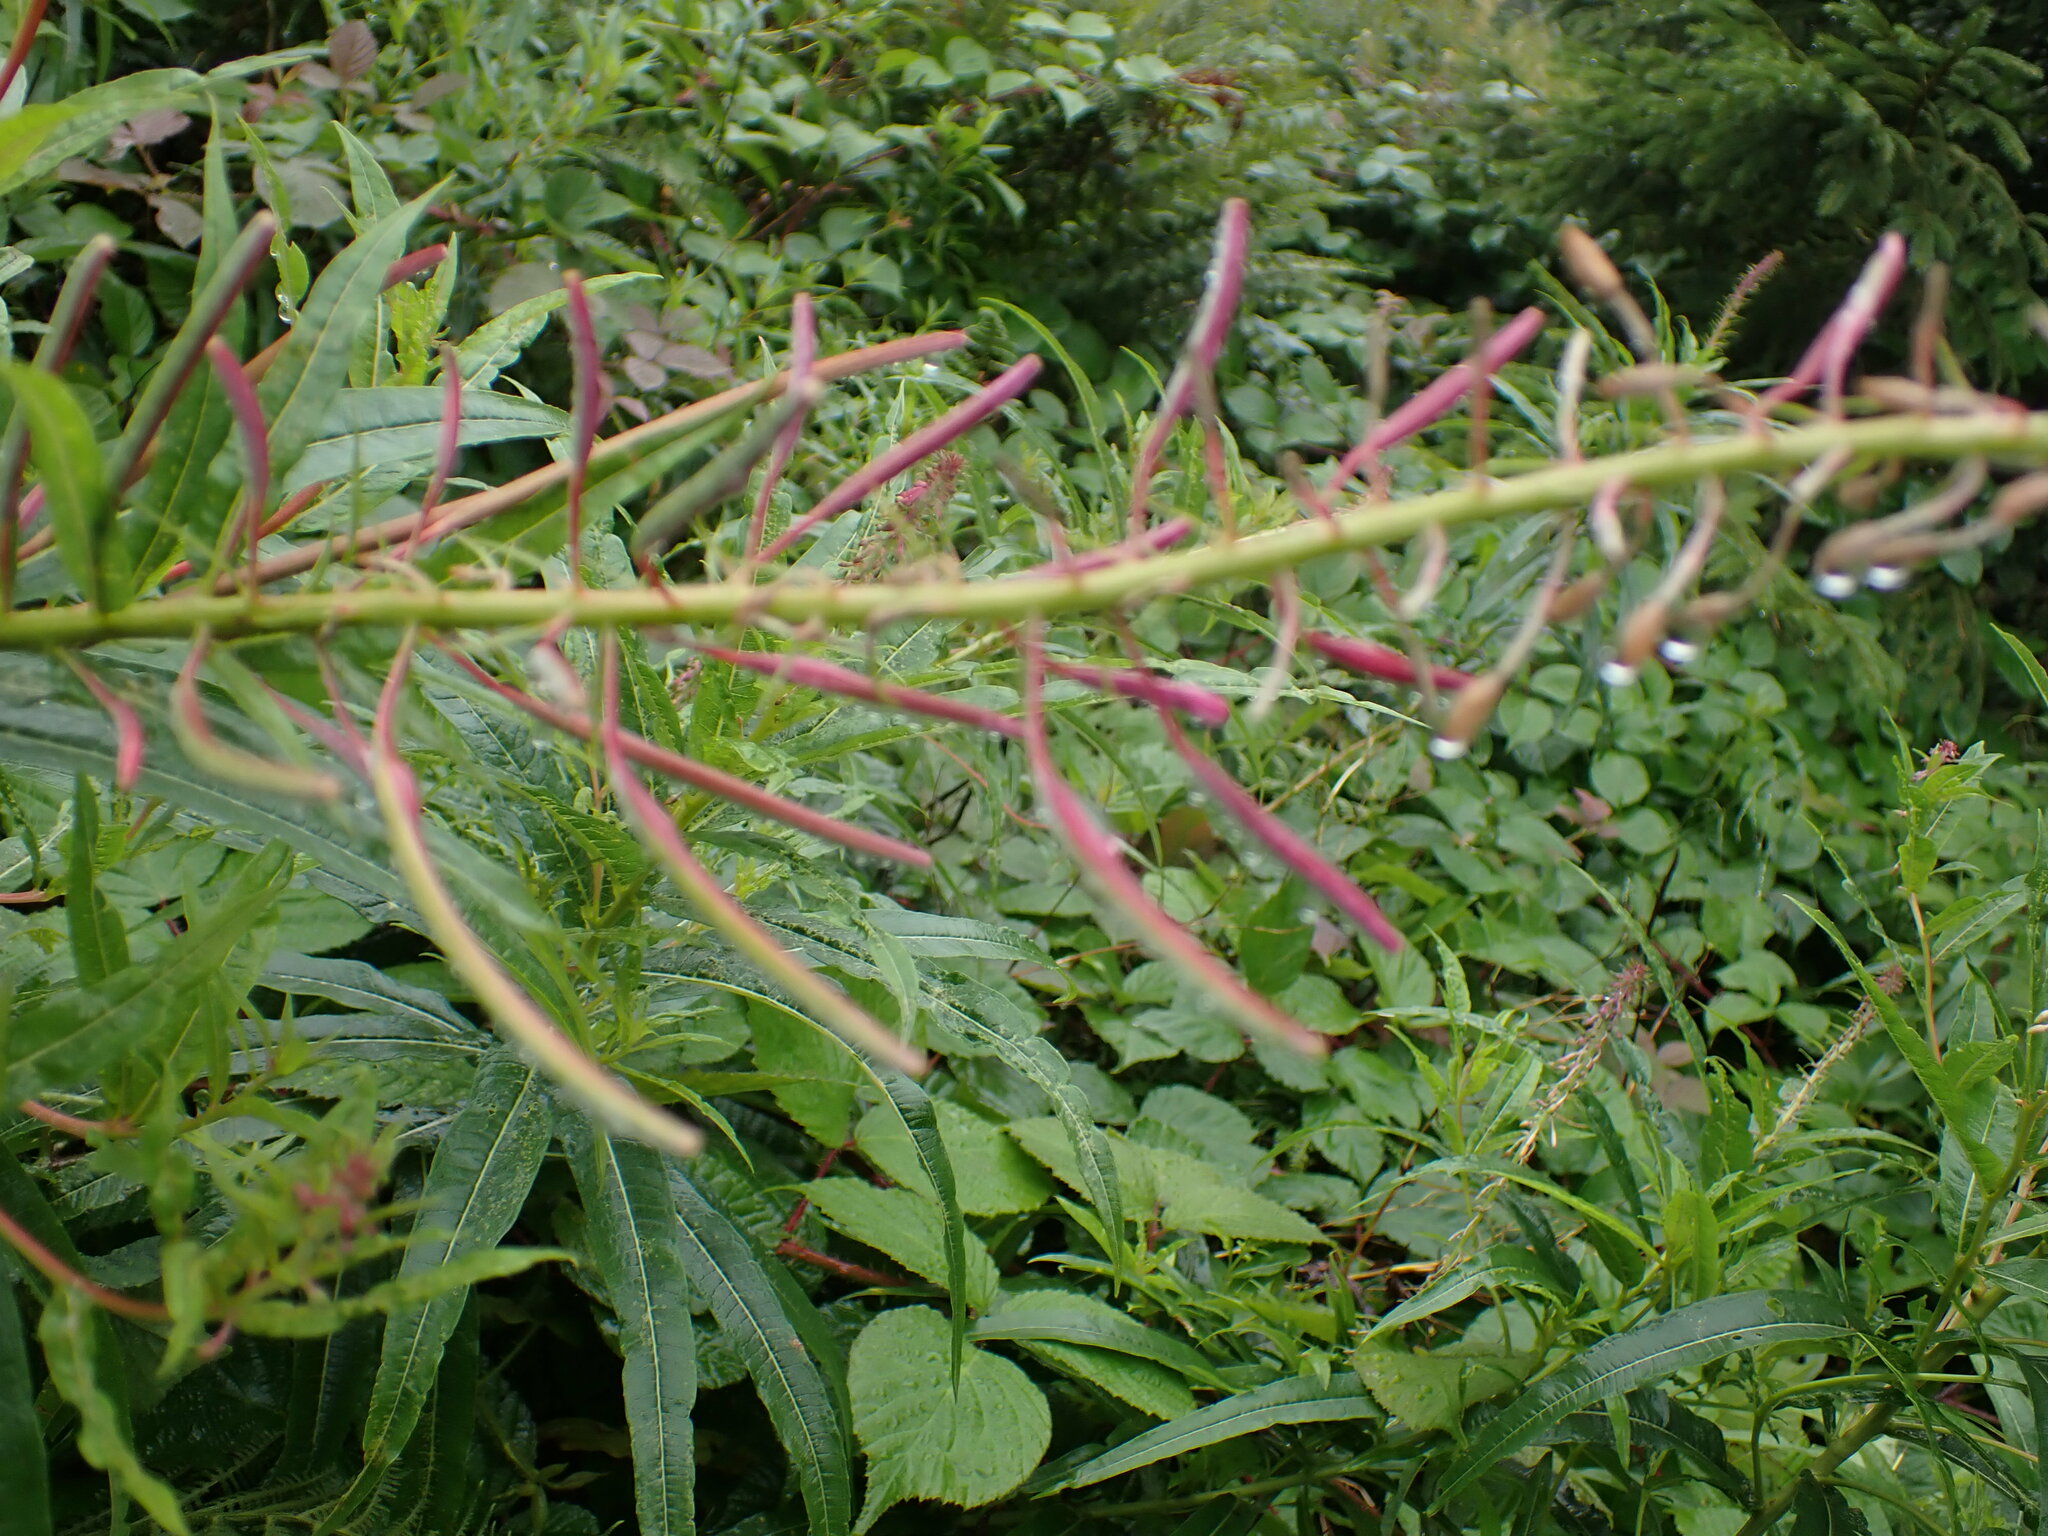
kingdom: Plantae
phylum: Tracheophyta
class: Magnoliopsida
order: Myrtales
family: Onagraceae
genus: Chamaenerion
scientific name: Chamaenerion angustifolium
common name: Fireweed
